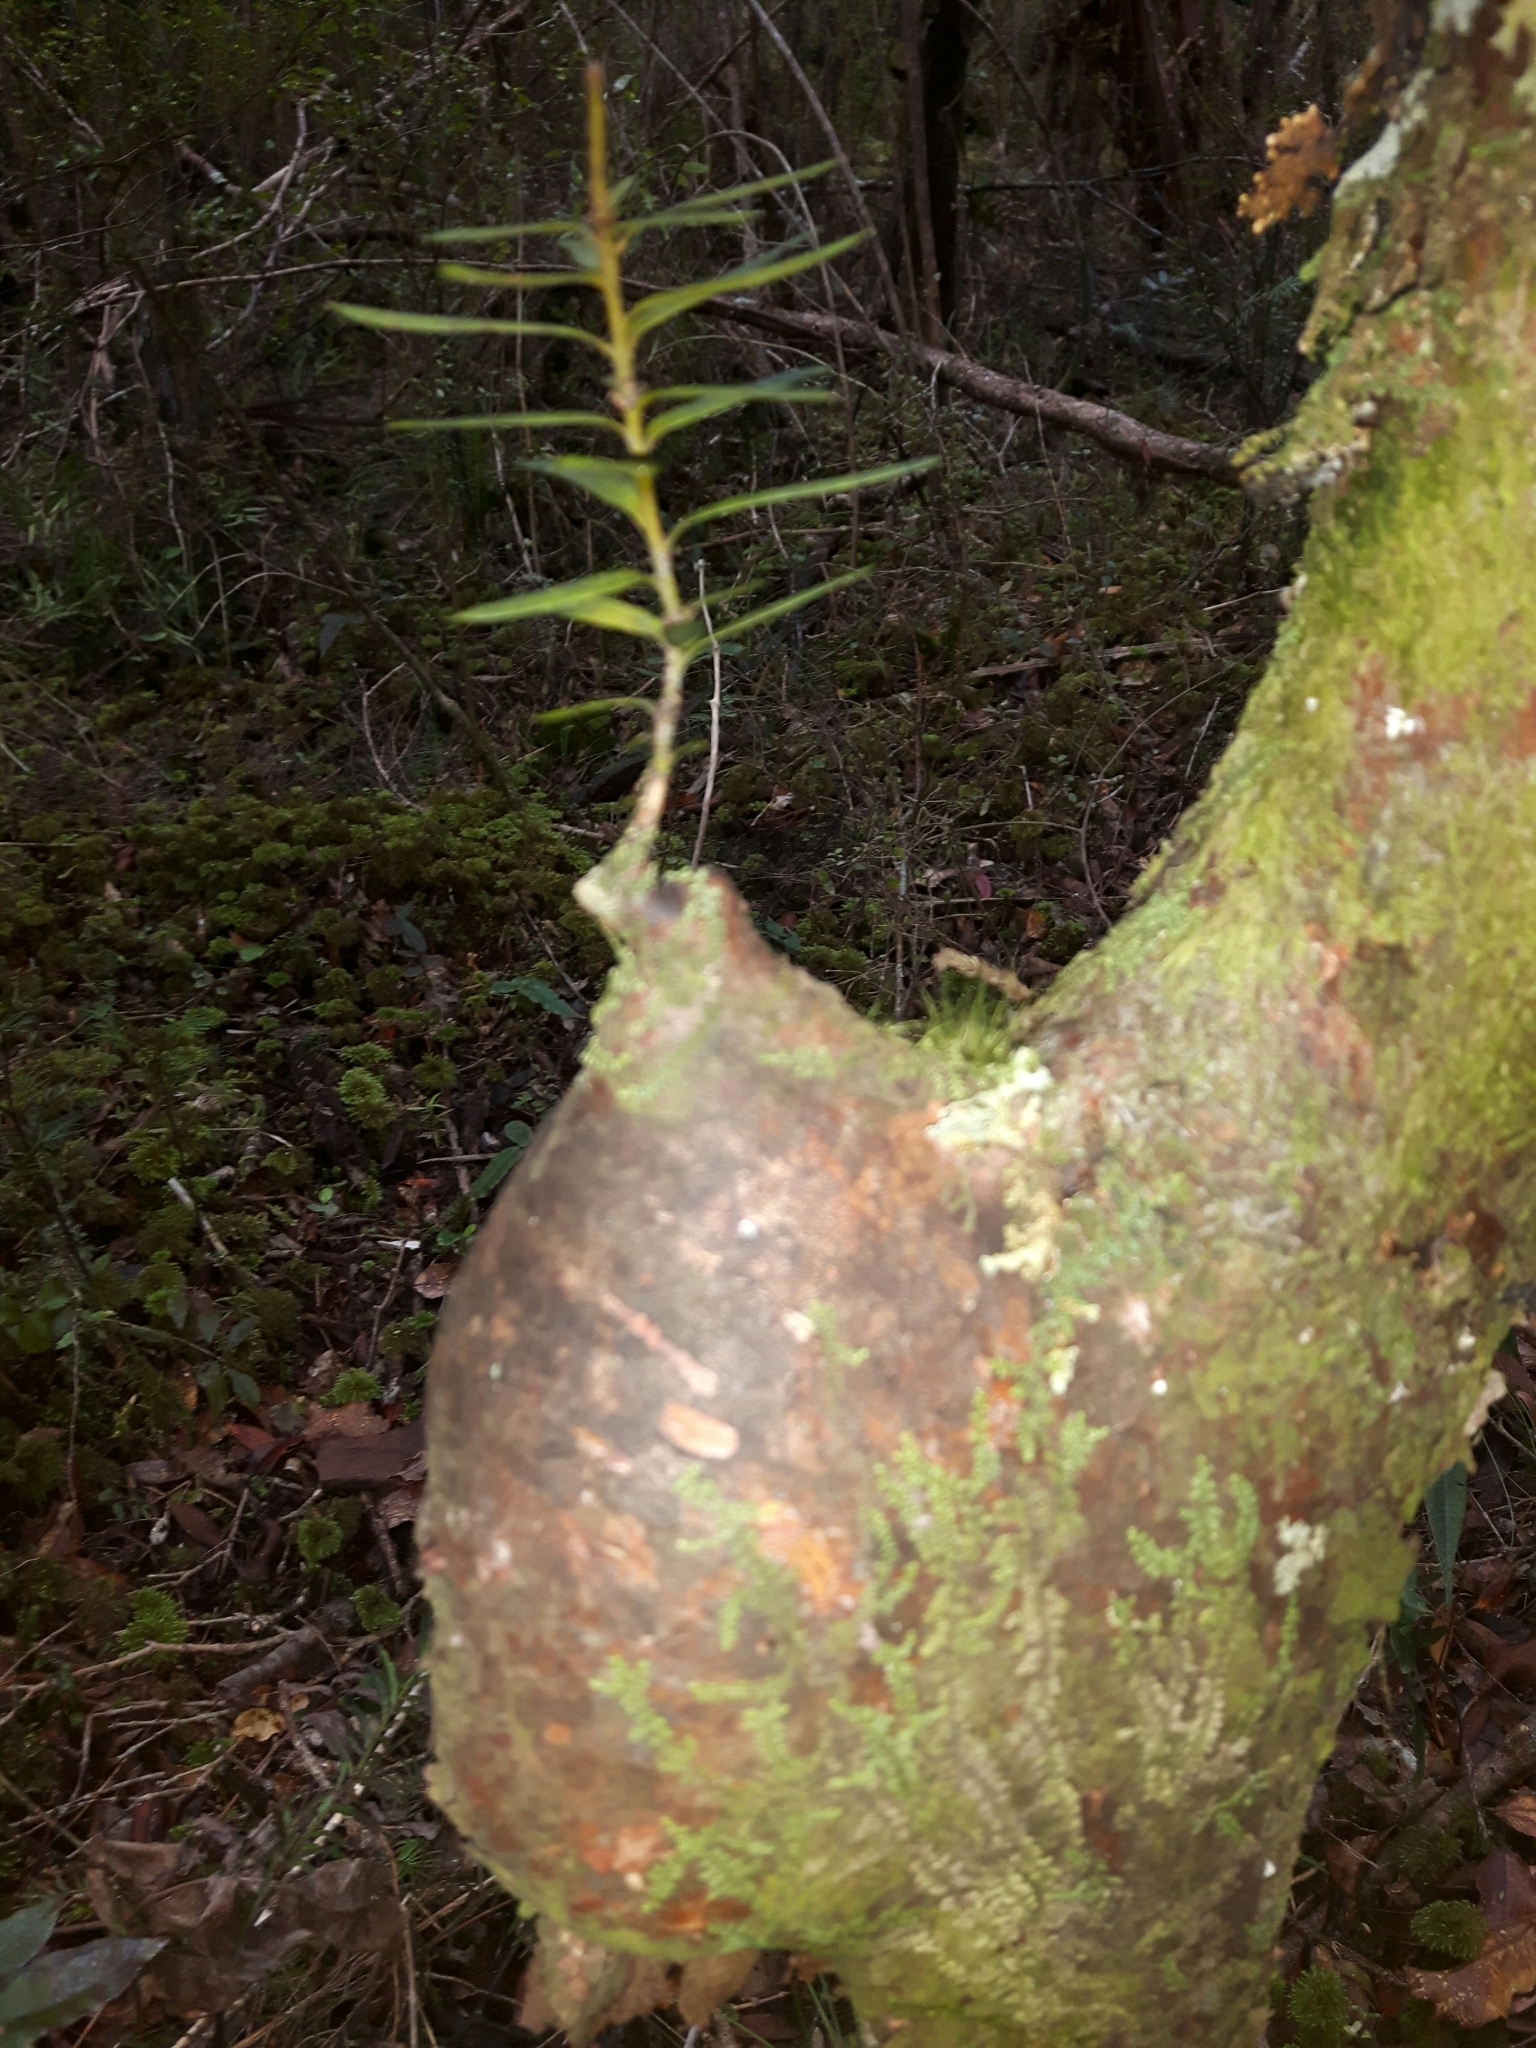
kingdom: Plantae
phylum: Tracheophyta
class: Pinopsida
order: Pinales
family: Podocarpaceae
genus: Podocarpus
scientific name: Podocarpus laetus
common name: Hall's totara
